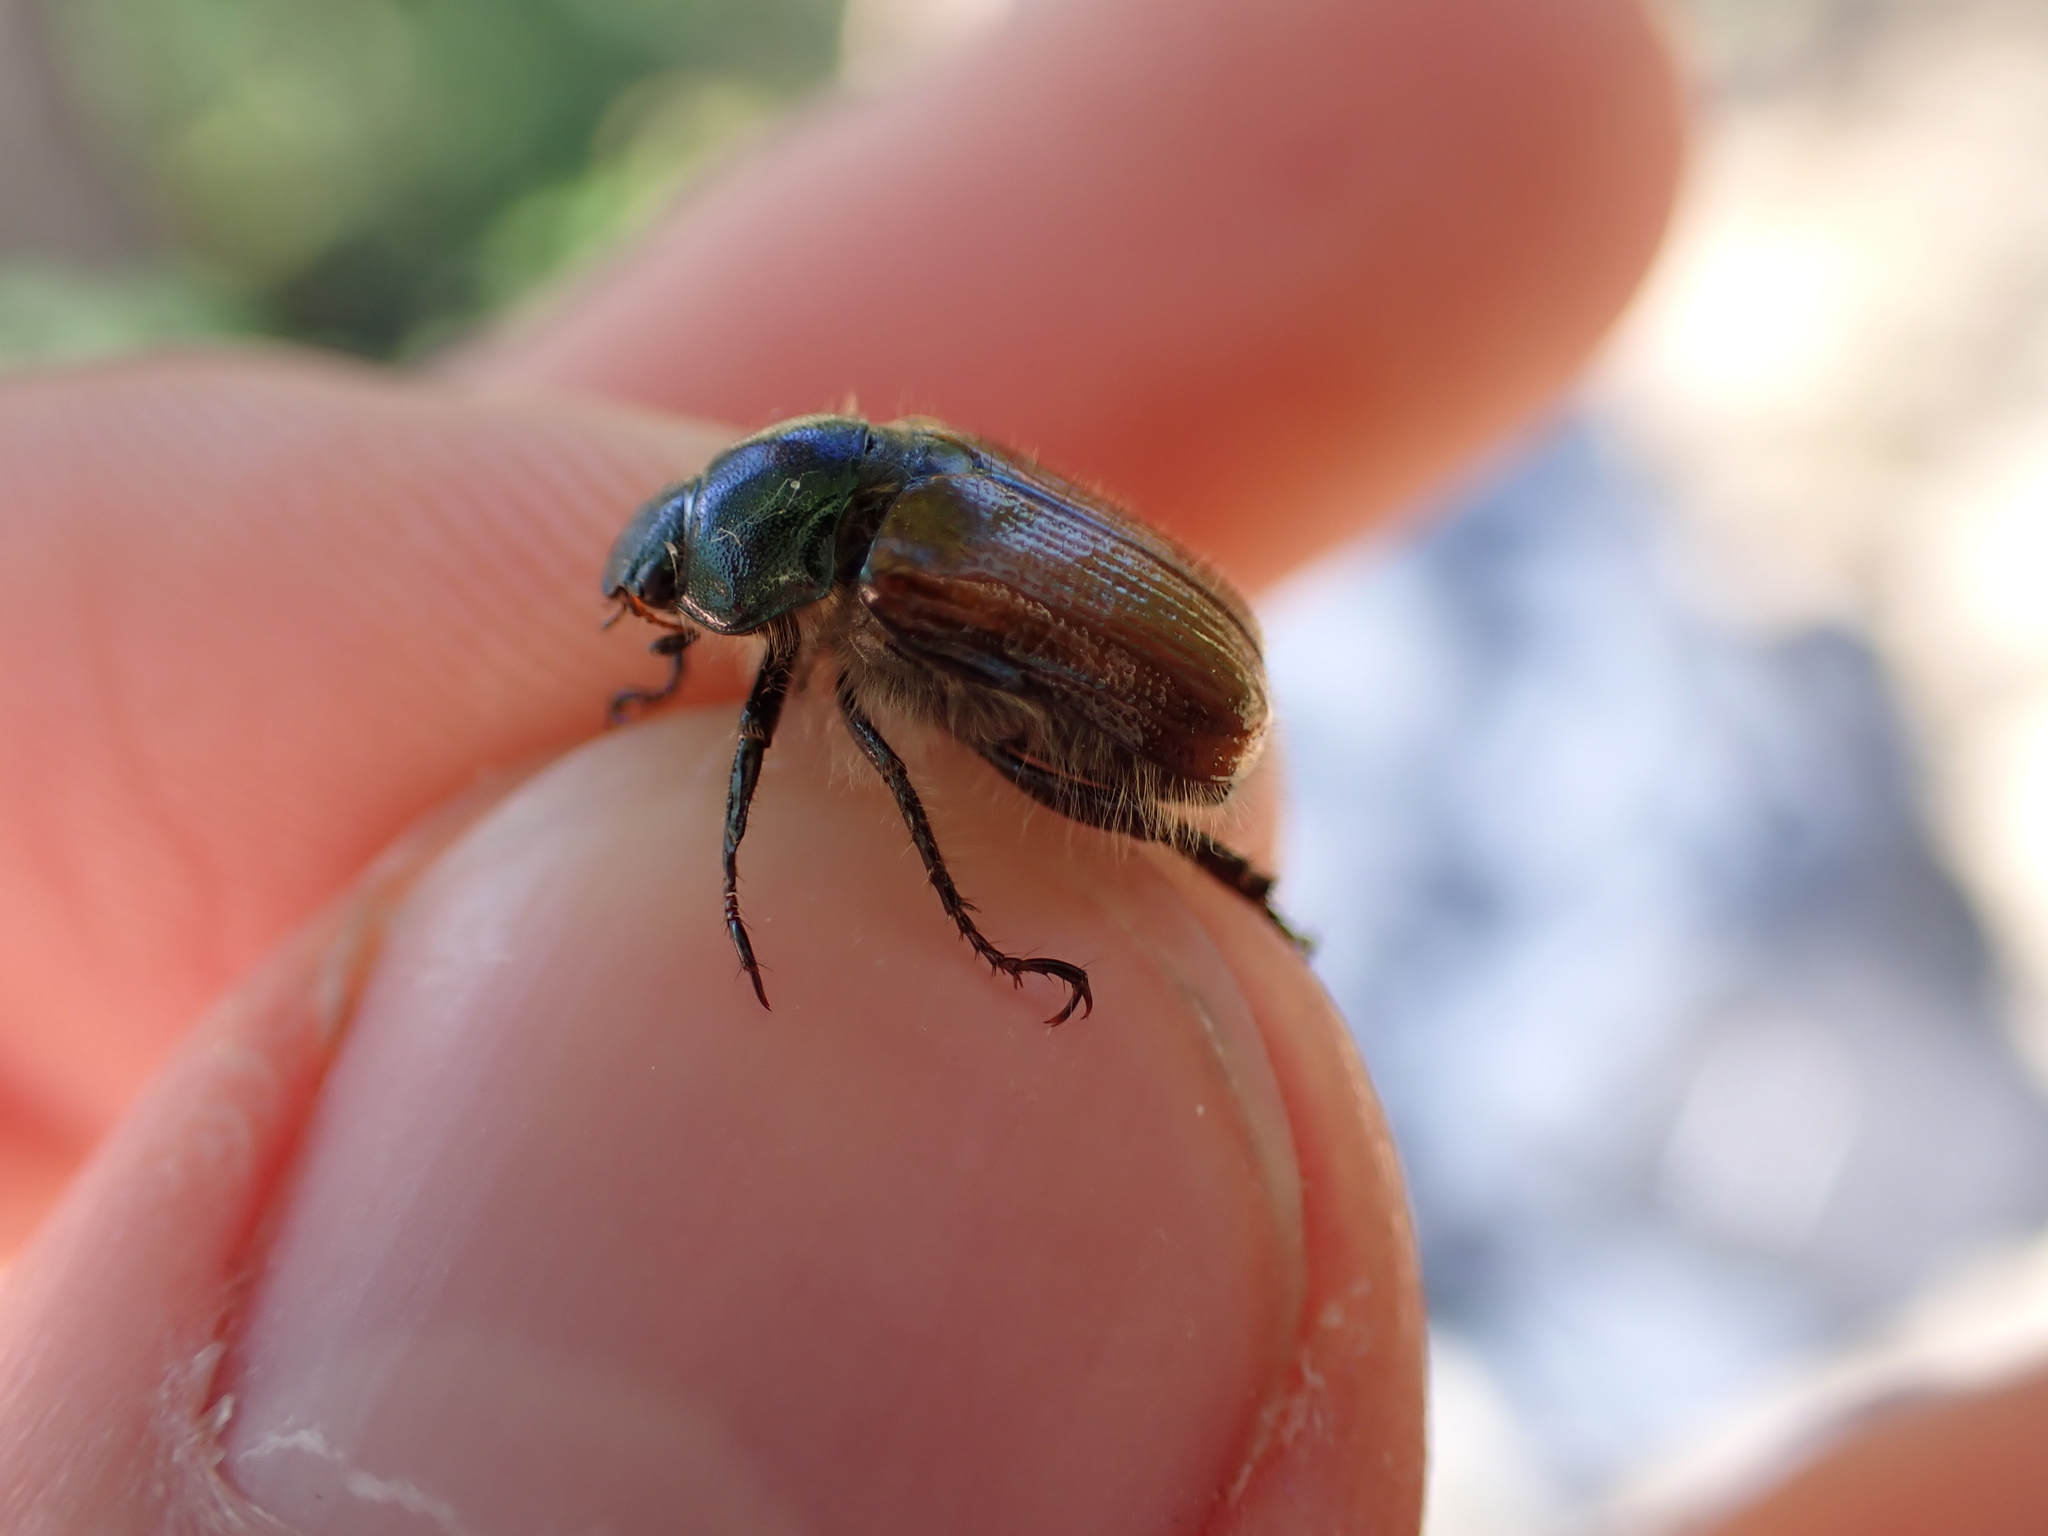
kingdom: Animalia
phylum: Arthropoda
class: Insecta
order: Coleoptera
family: Scarabaeidae
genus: Phyllopertha
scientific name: Phyllopertha horticola
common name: Garden chafer
